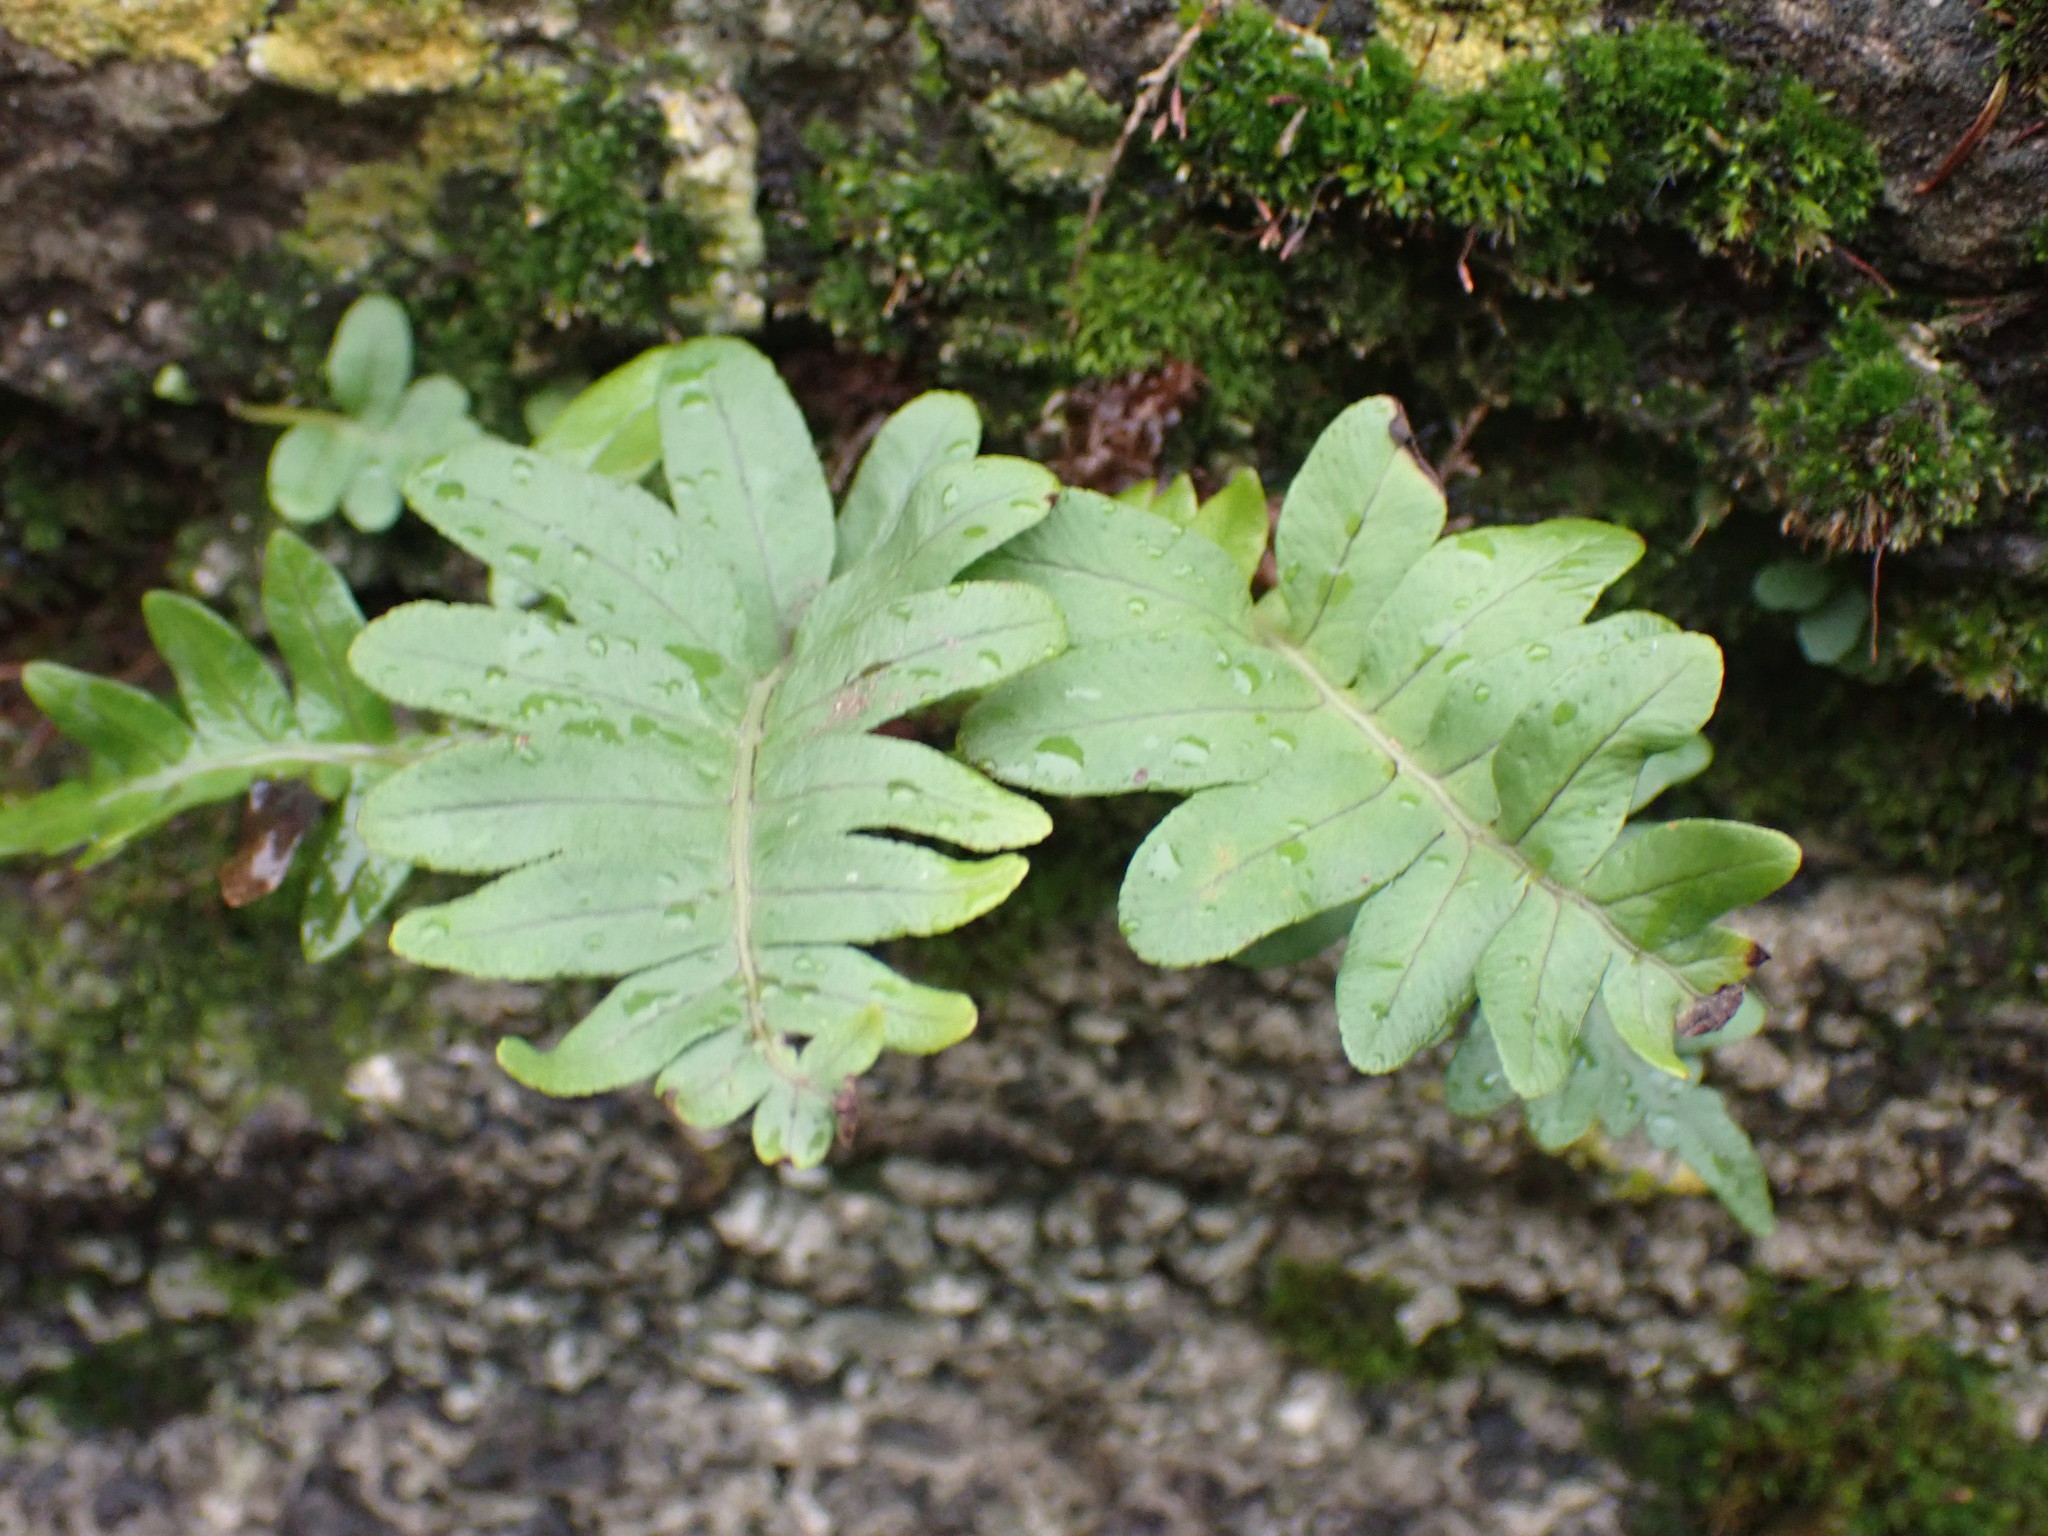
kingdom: Plantae
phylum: Tracheophyta
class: Polypodiopsida
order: Polypodiales
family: Polypodiaceae
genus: Polypodium
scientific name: Polypodium vulgare
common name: Common polypody
